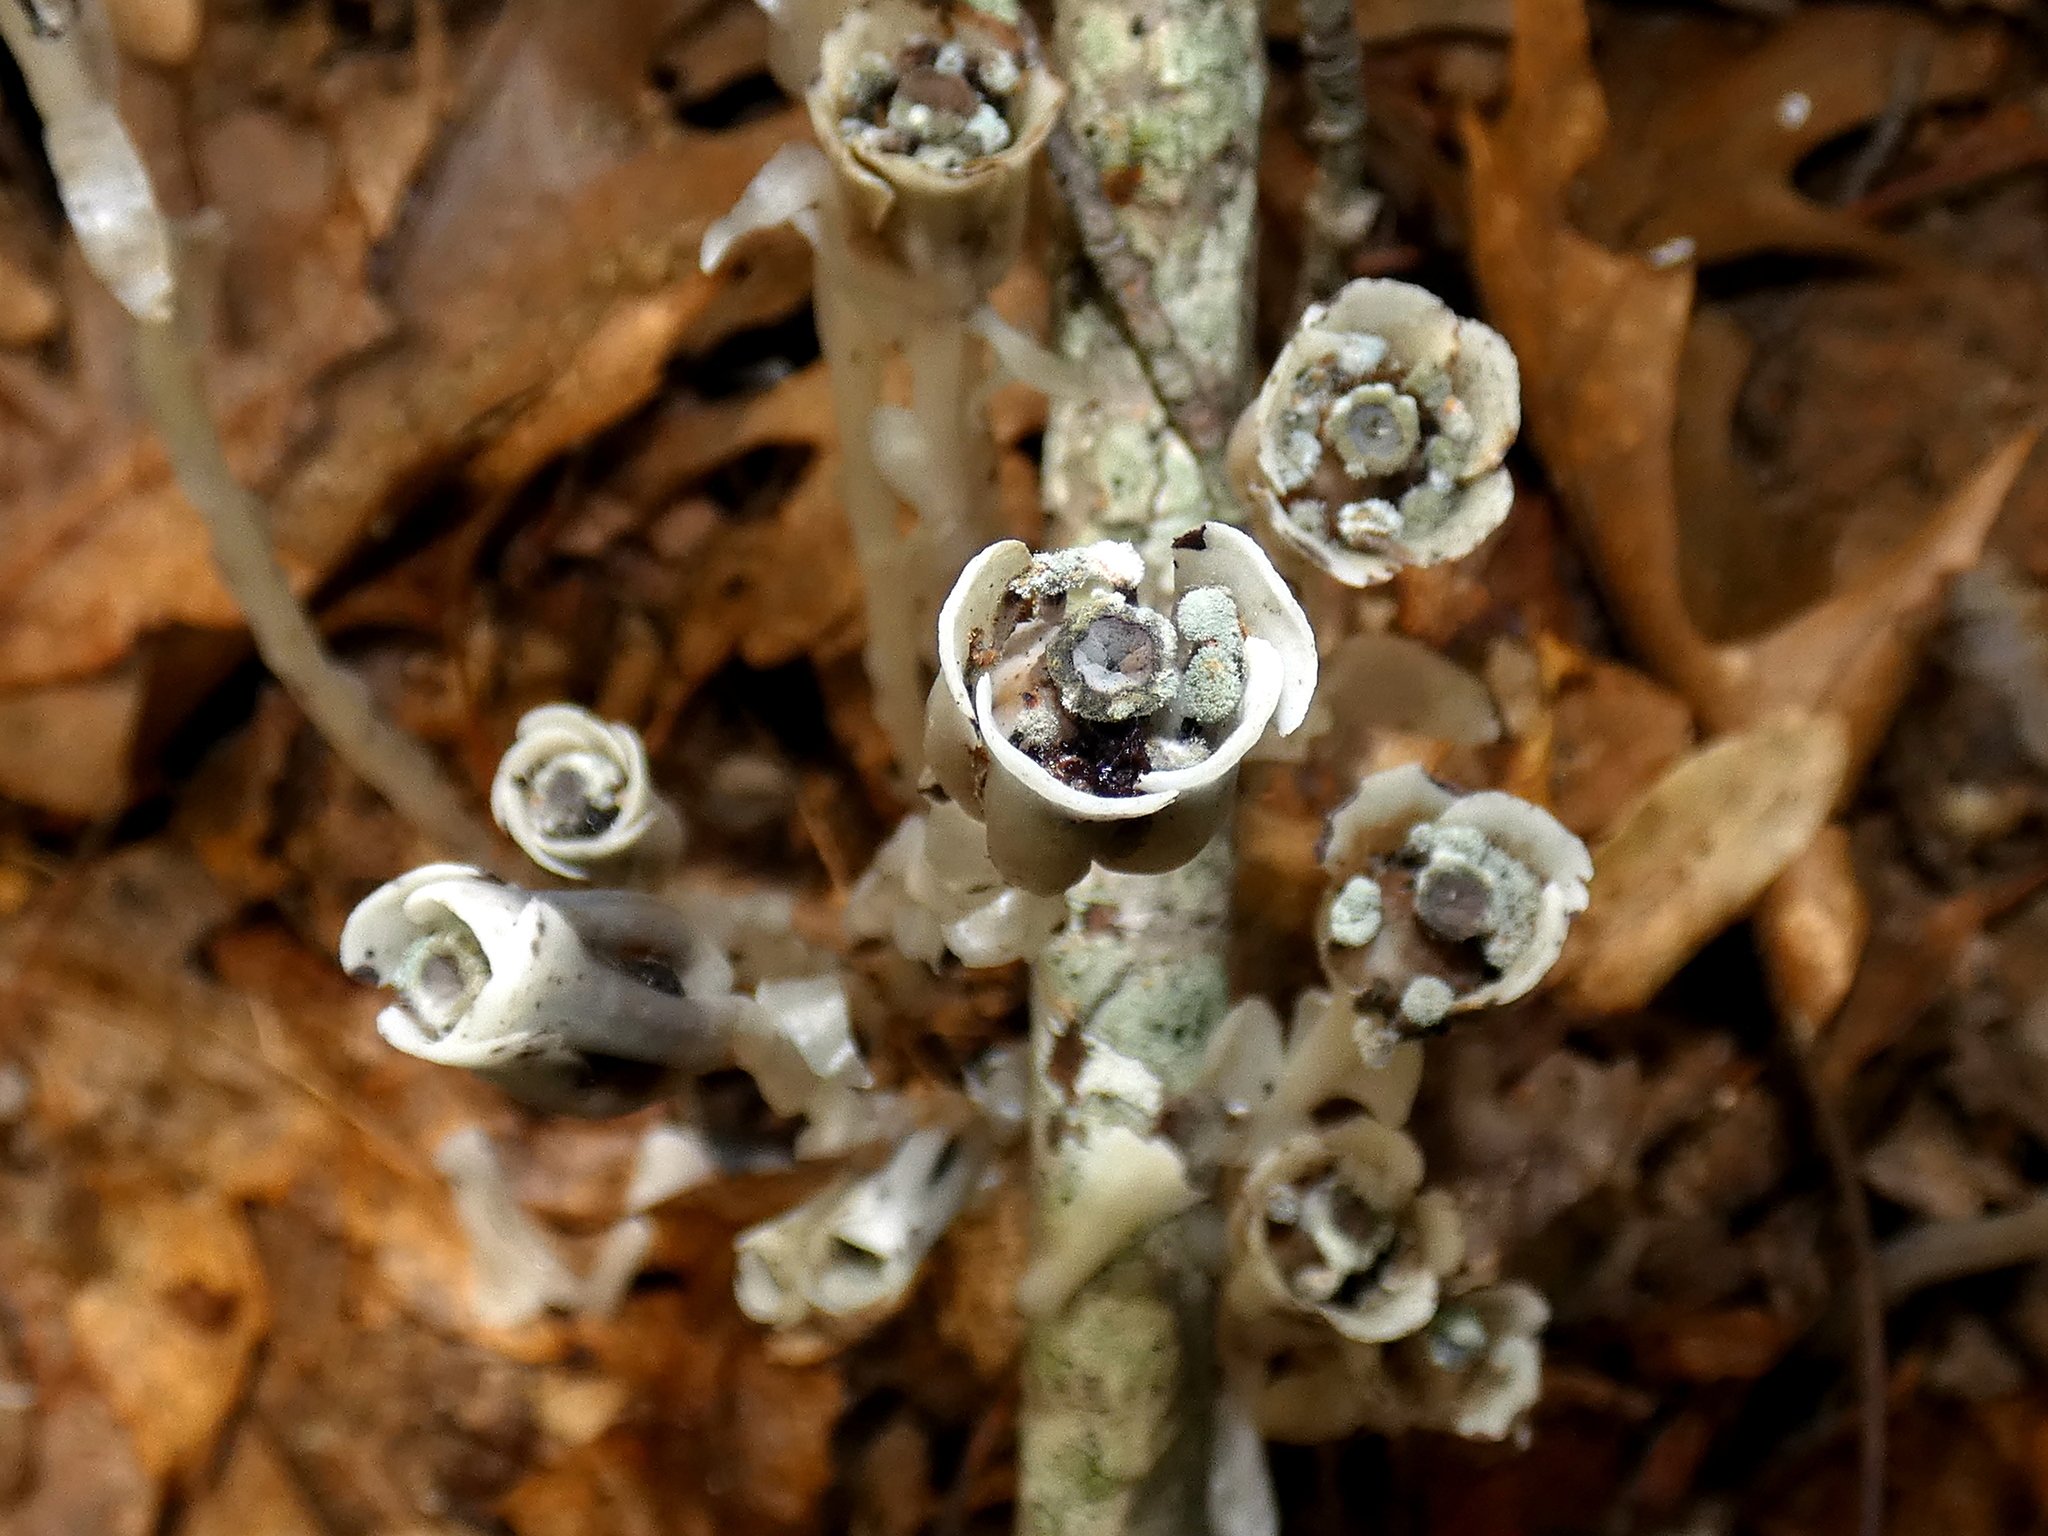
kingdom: Plantae
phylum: Tracheophyta
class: Magnoliopsida
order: Ericales
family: Ericaceae
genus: Monotropa
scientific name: Monotropa uniflora
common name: Convulsion root
